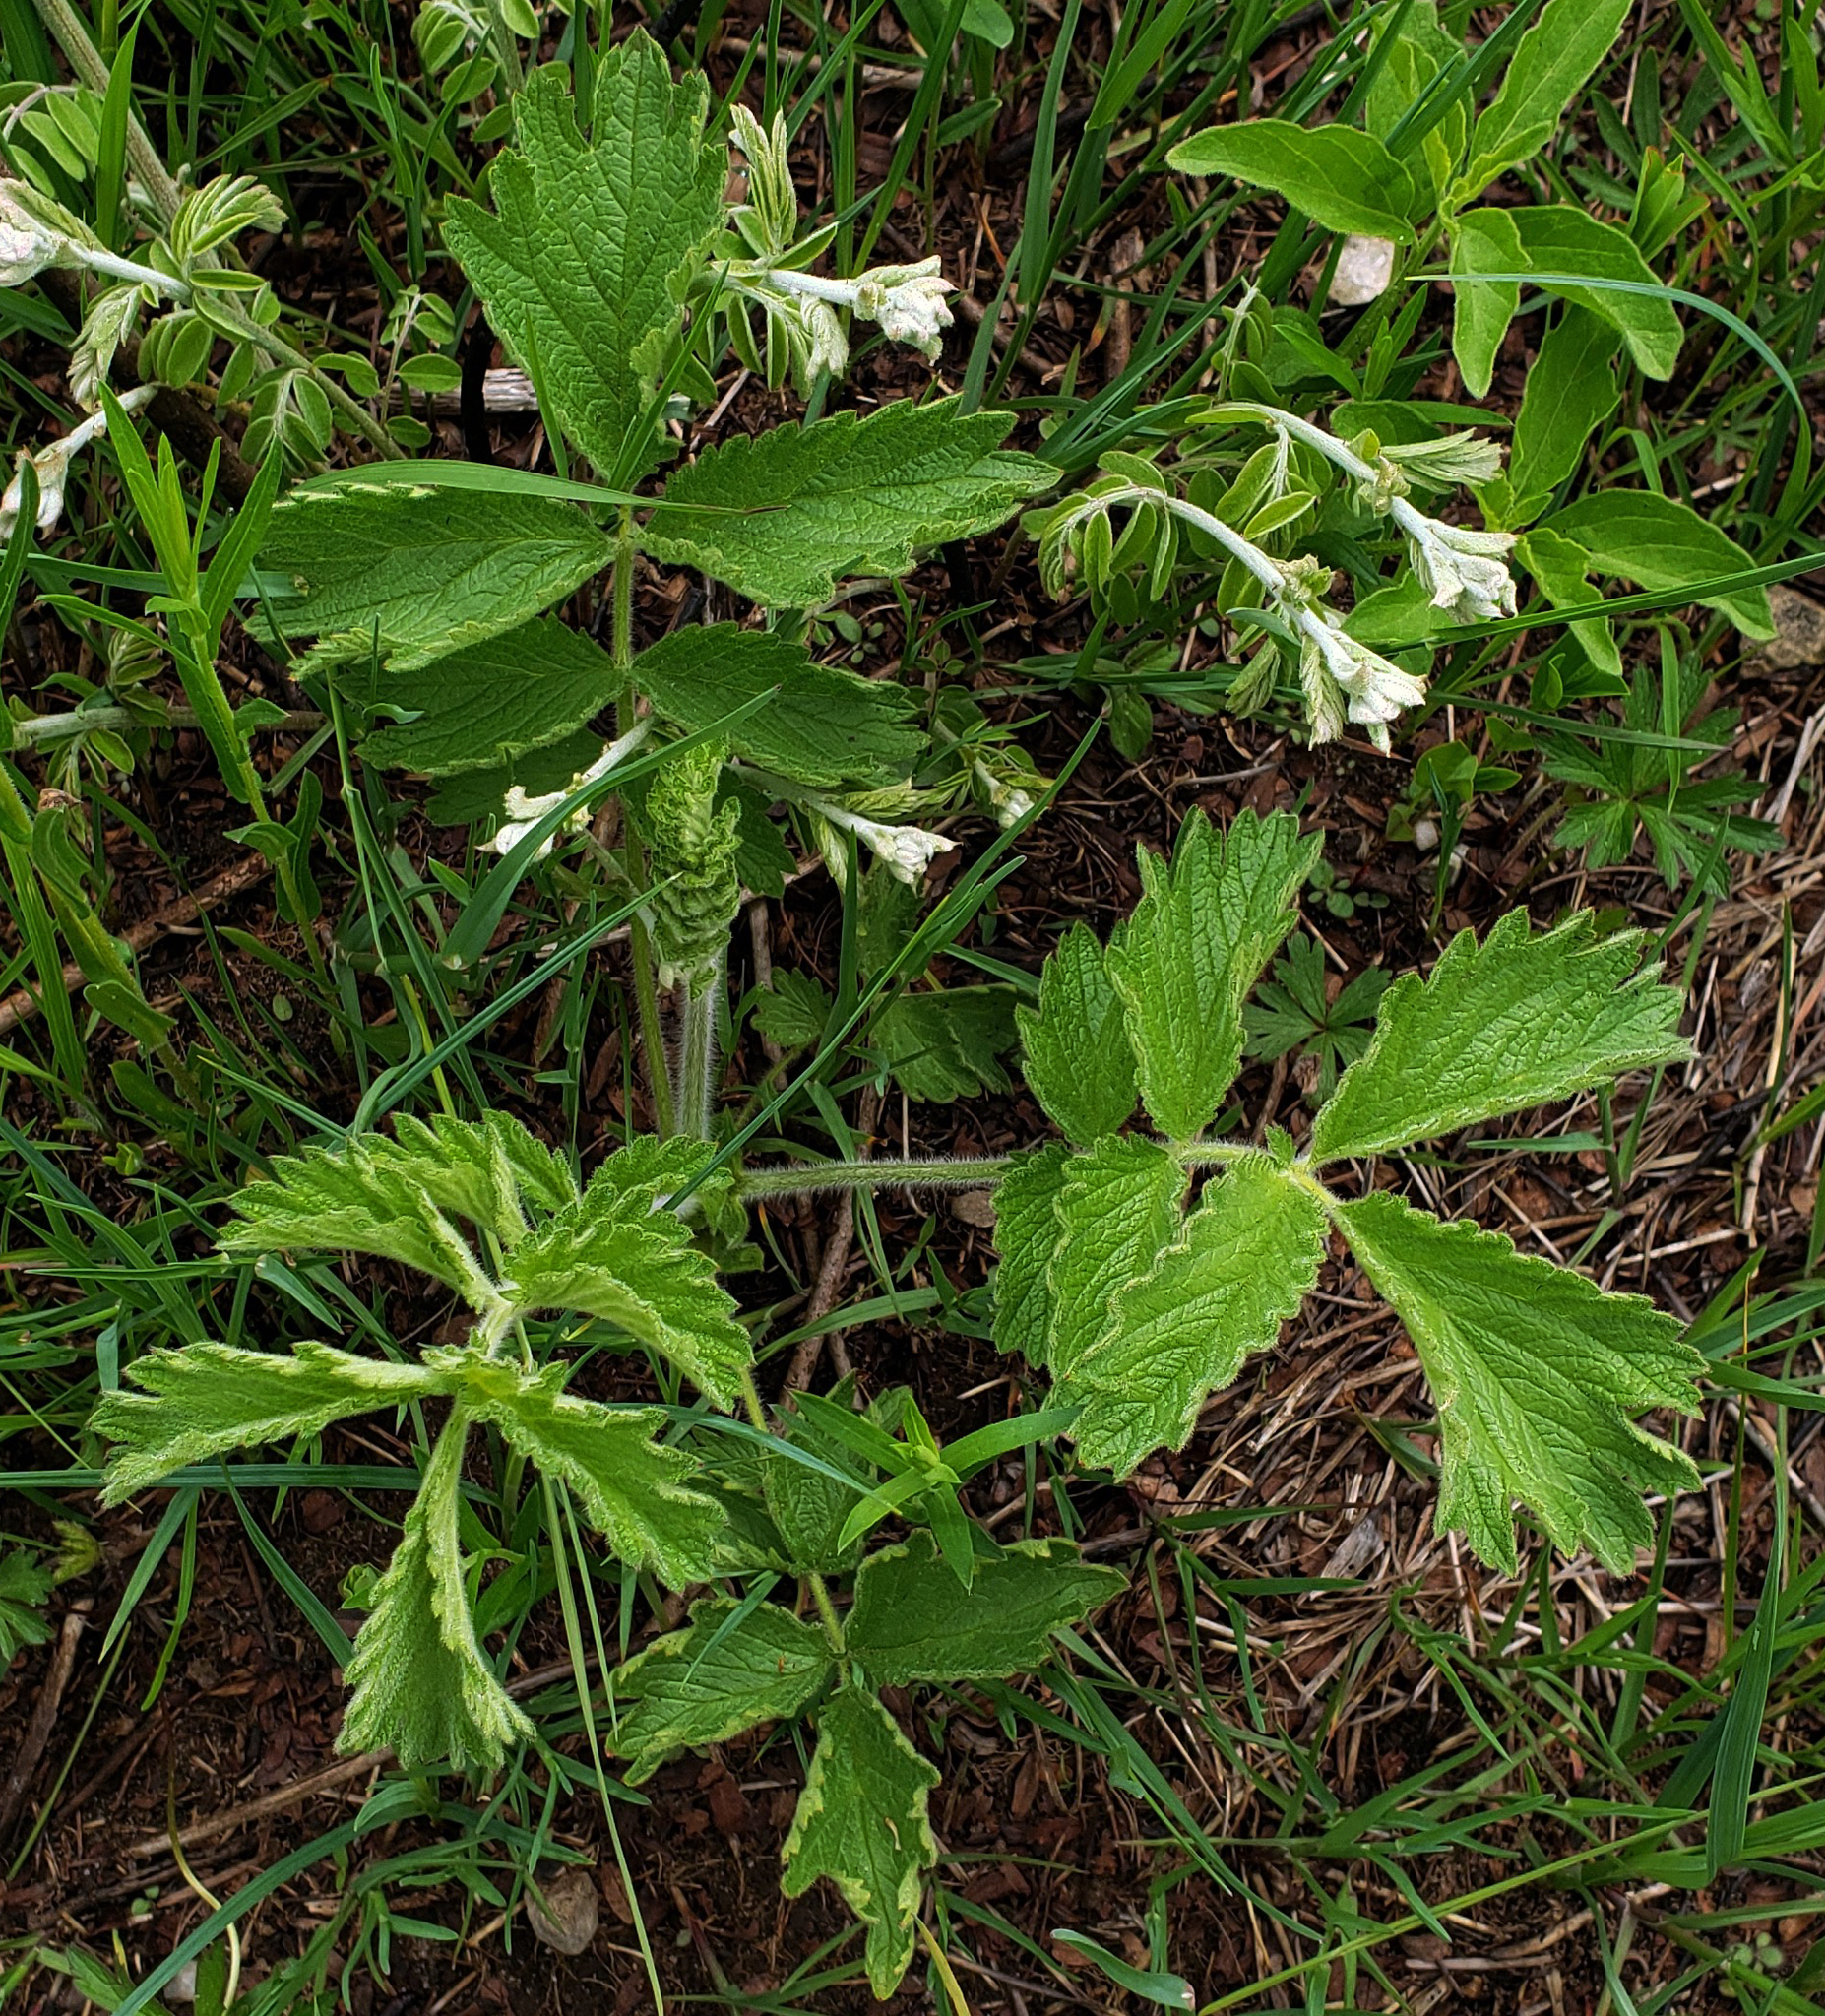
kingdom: Plantae
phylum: Tracheophyta
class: Magnoliopsida
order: Rosales
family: Rosaceae
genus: Drymocallis
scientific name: Drymocallis arguta
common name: Tall cinquefoil
